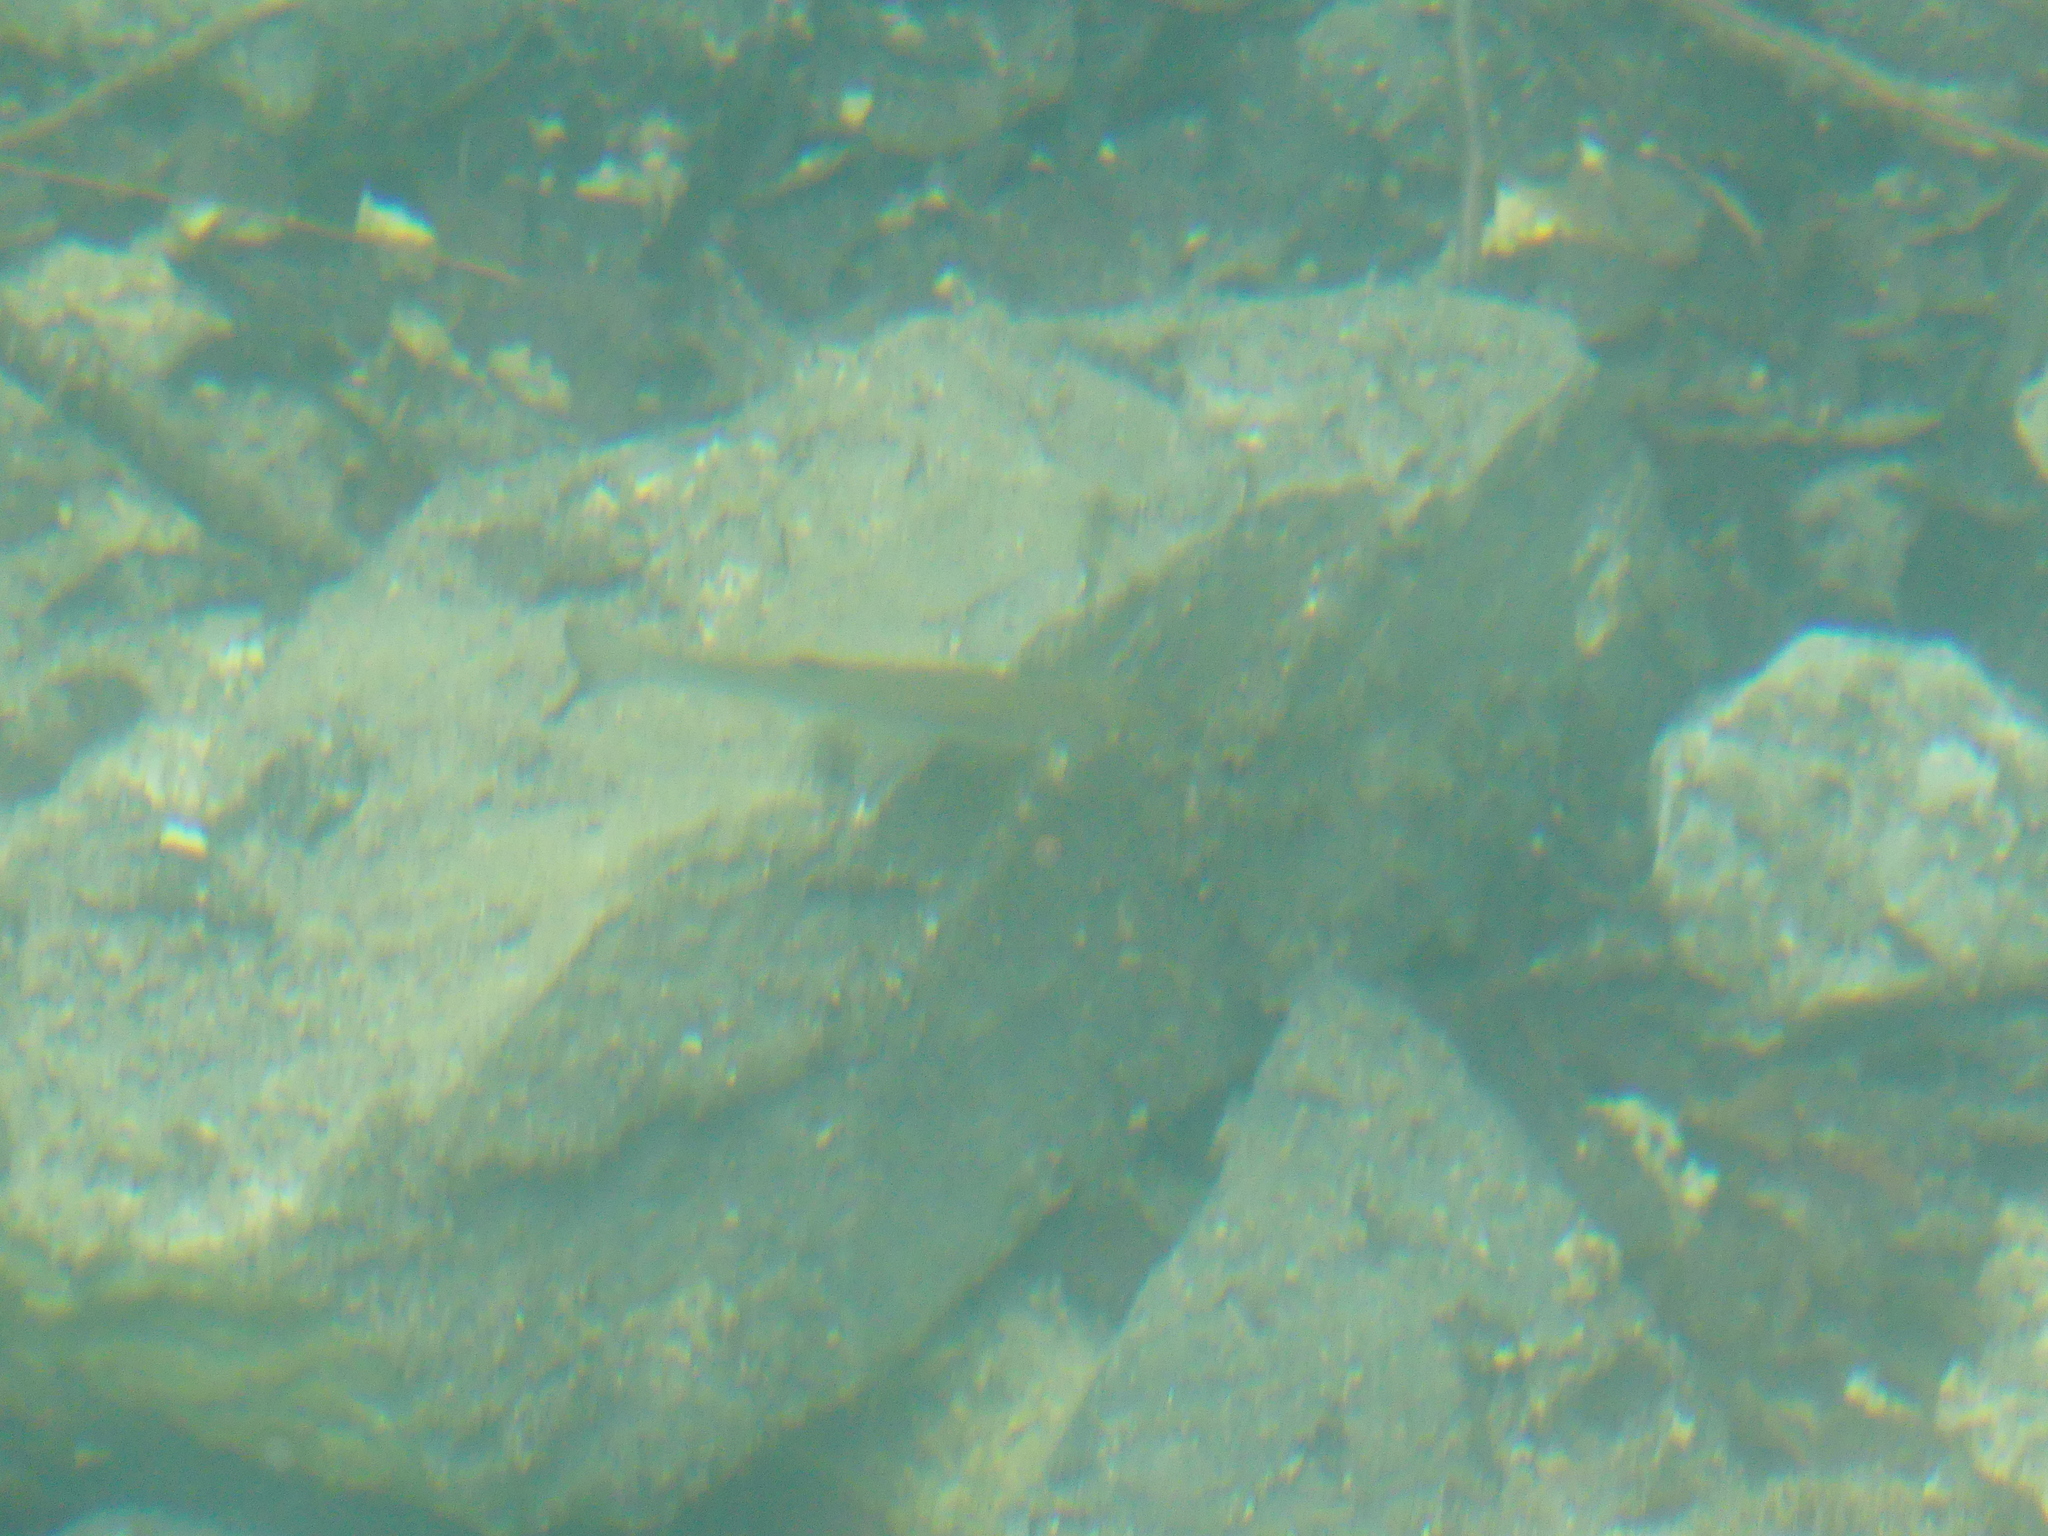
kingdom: Animalia
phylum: Chordata
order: Cypriniformes
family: Cyprinidae
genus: Squalius
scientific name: Squalius cephalus
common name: Chub
